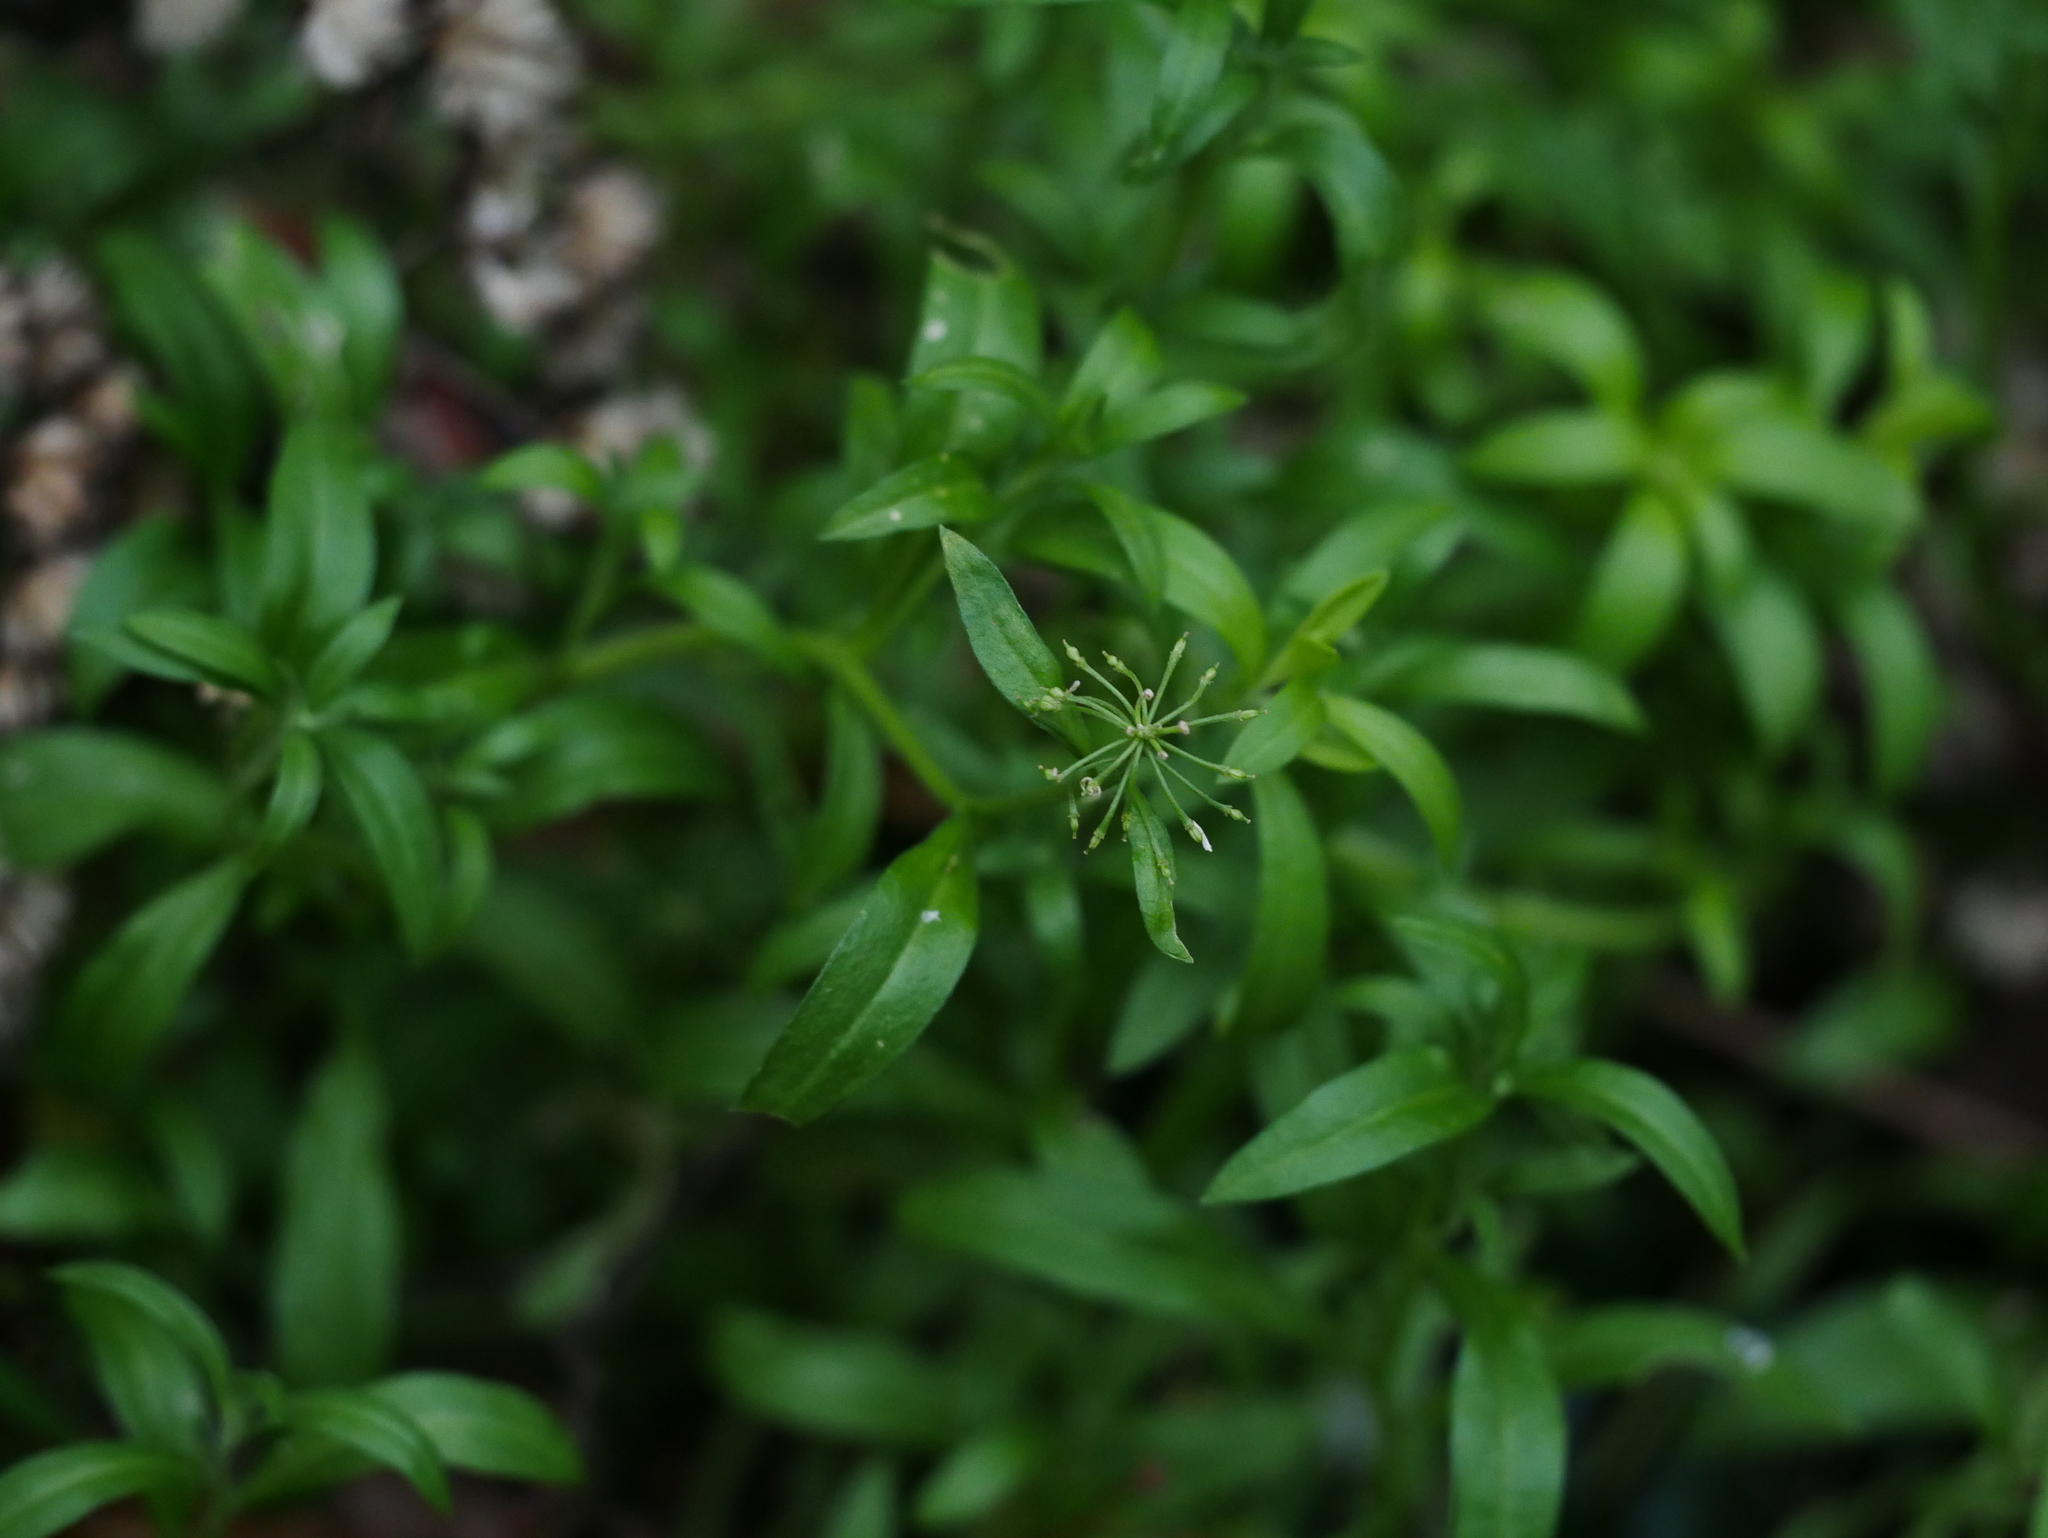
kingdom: Plantae
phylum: Tracheophyta
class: Magnoliopsida
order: Brassicales
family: Brassicaceae
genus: Lobularia
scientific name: Lobularia maritima
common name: Sweet alison
